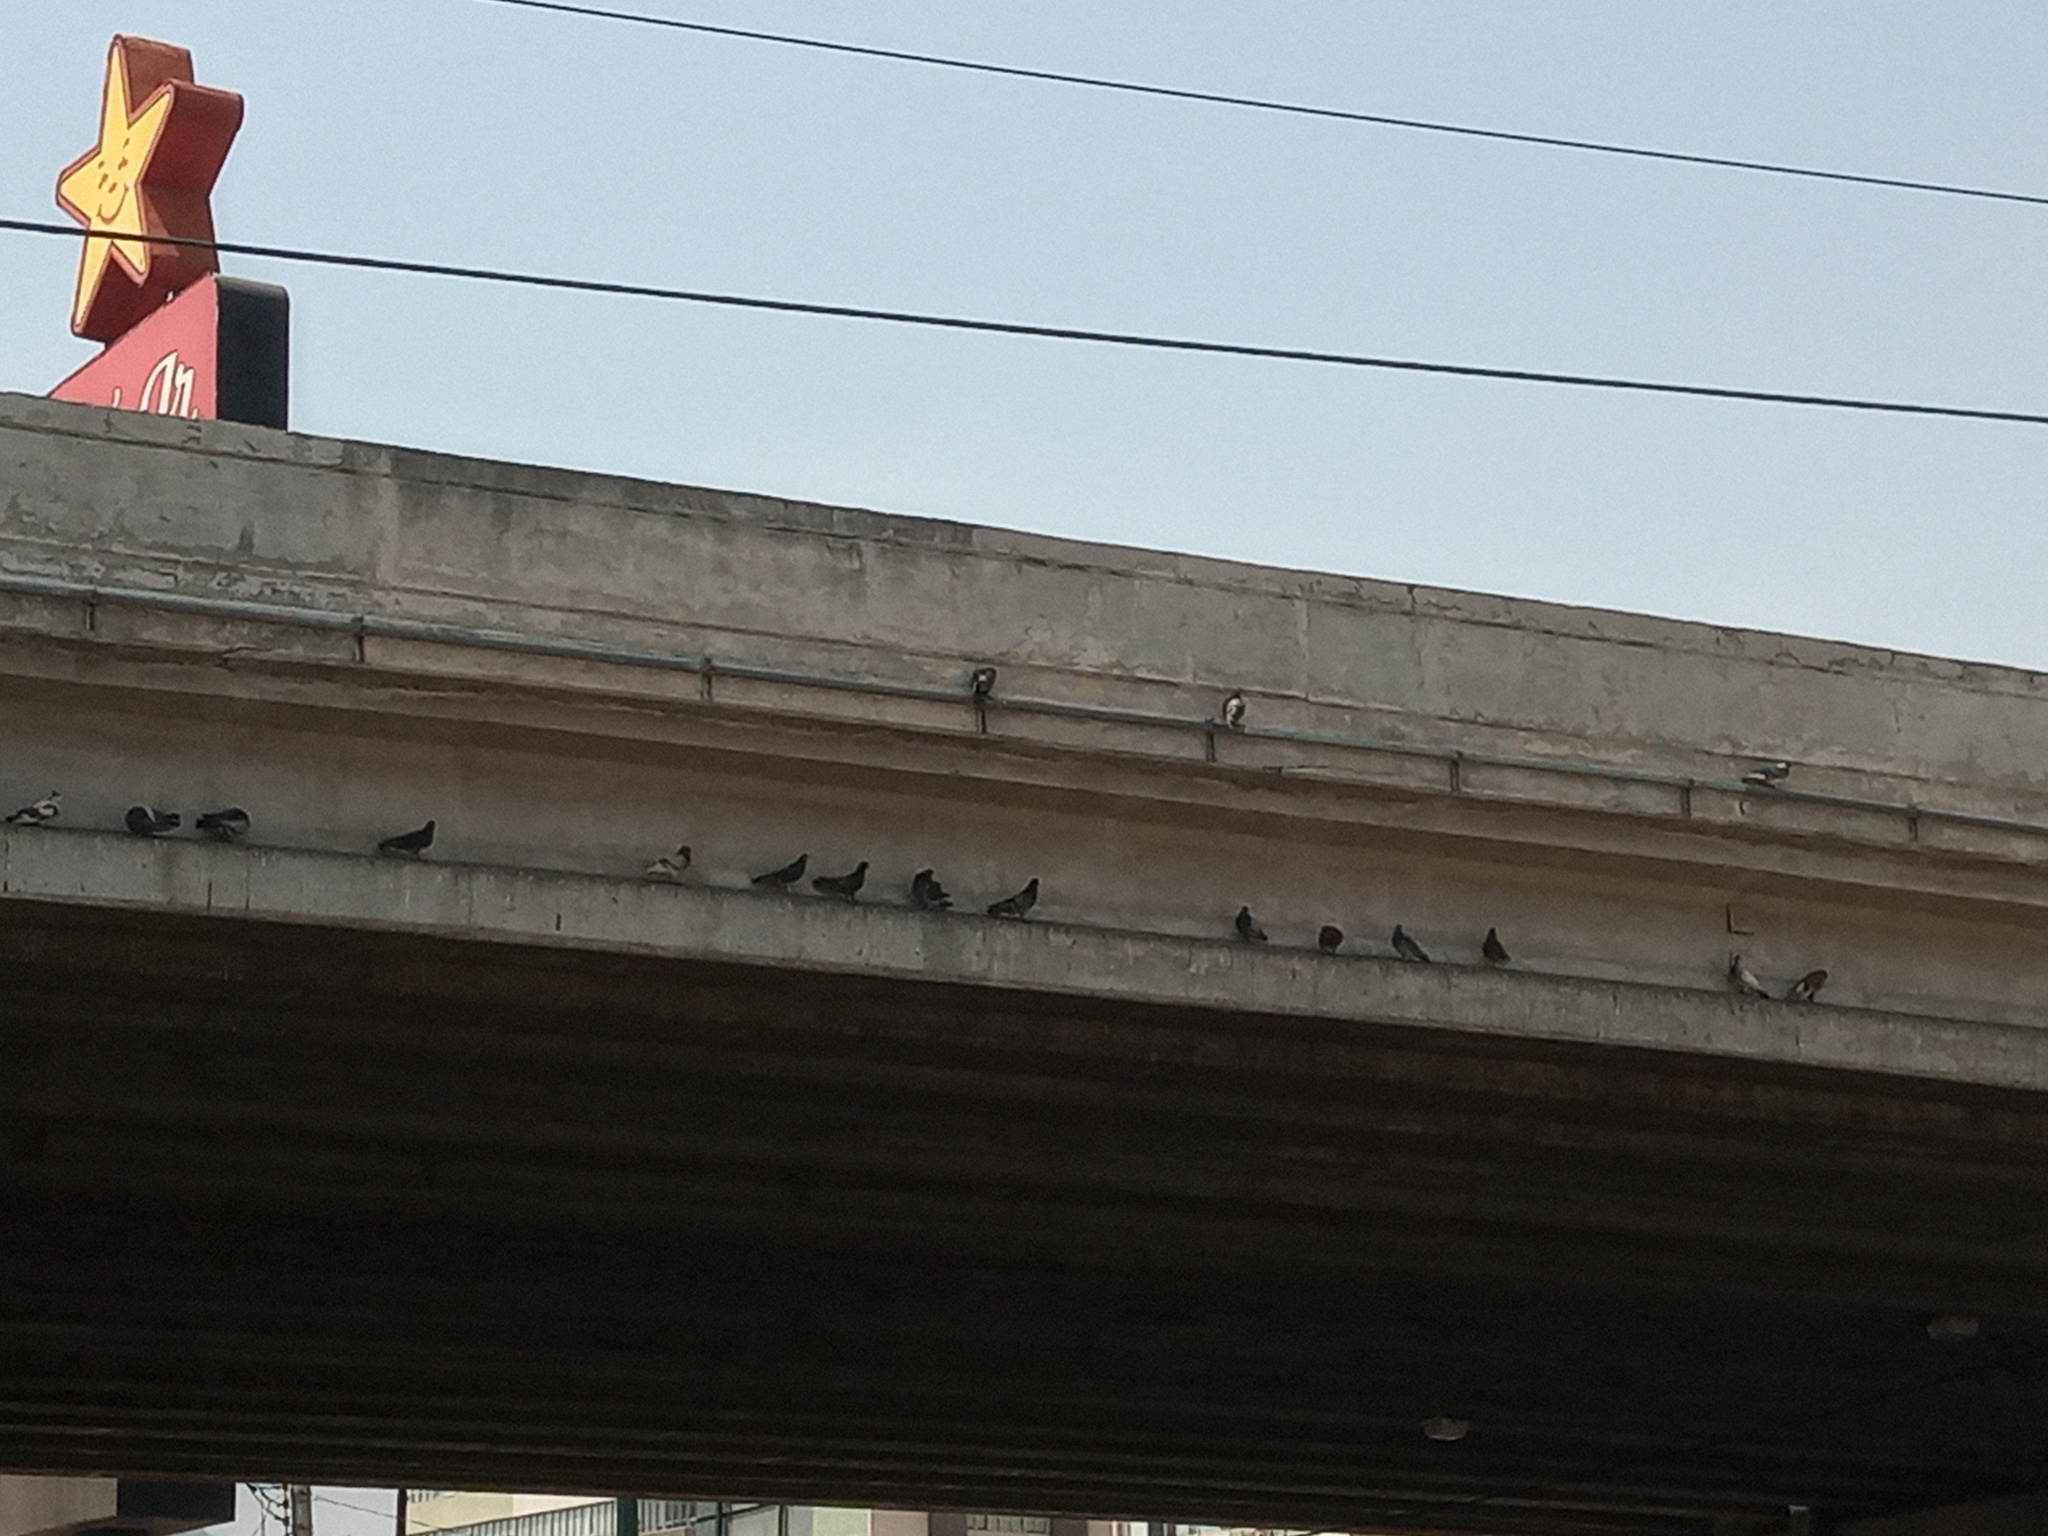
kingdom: Animalia
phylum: Chordata
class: Aves
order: Columbiformes
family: Columbidae
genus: Columba
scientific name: Columba livia
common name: Rock pigeon
